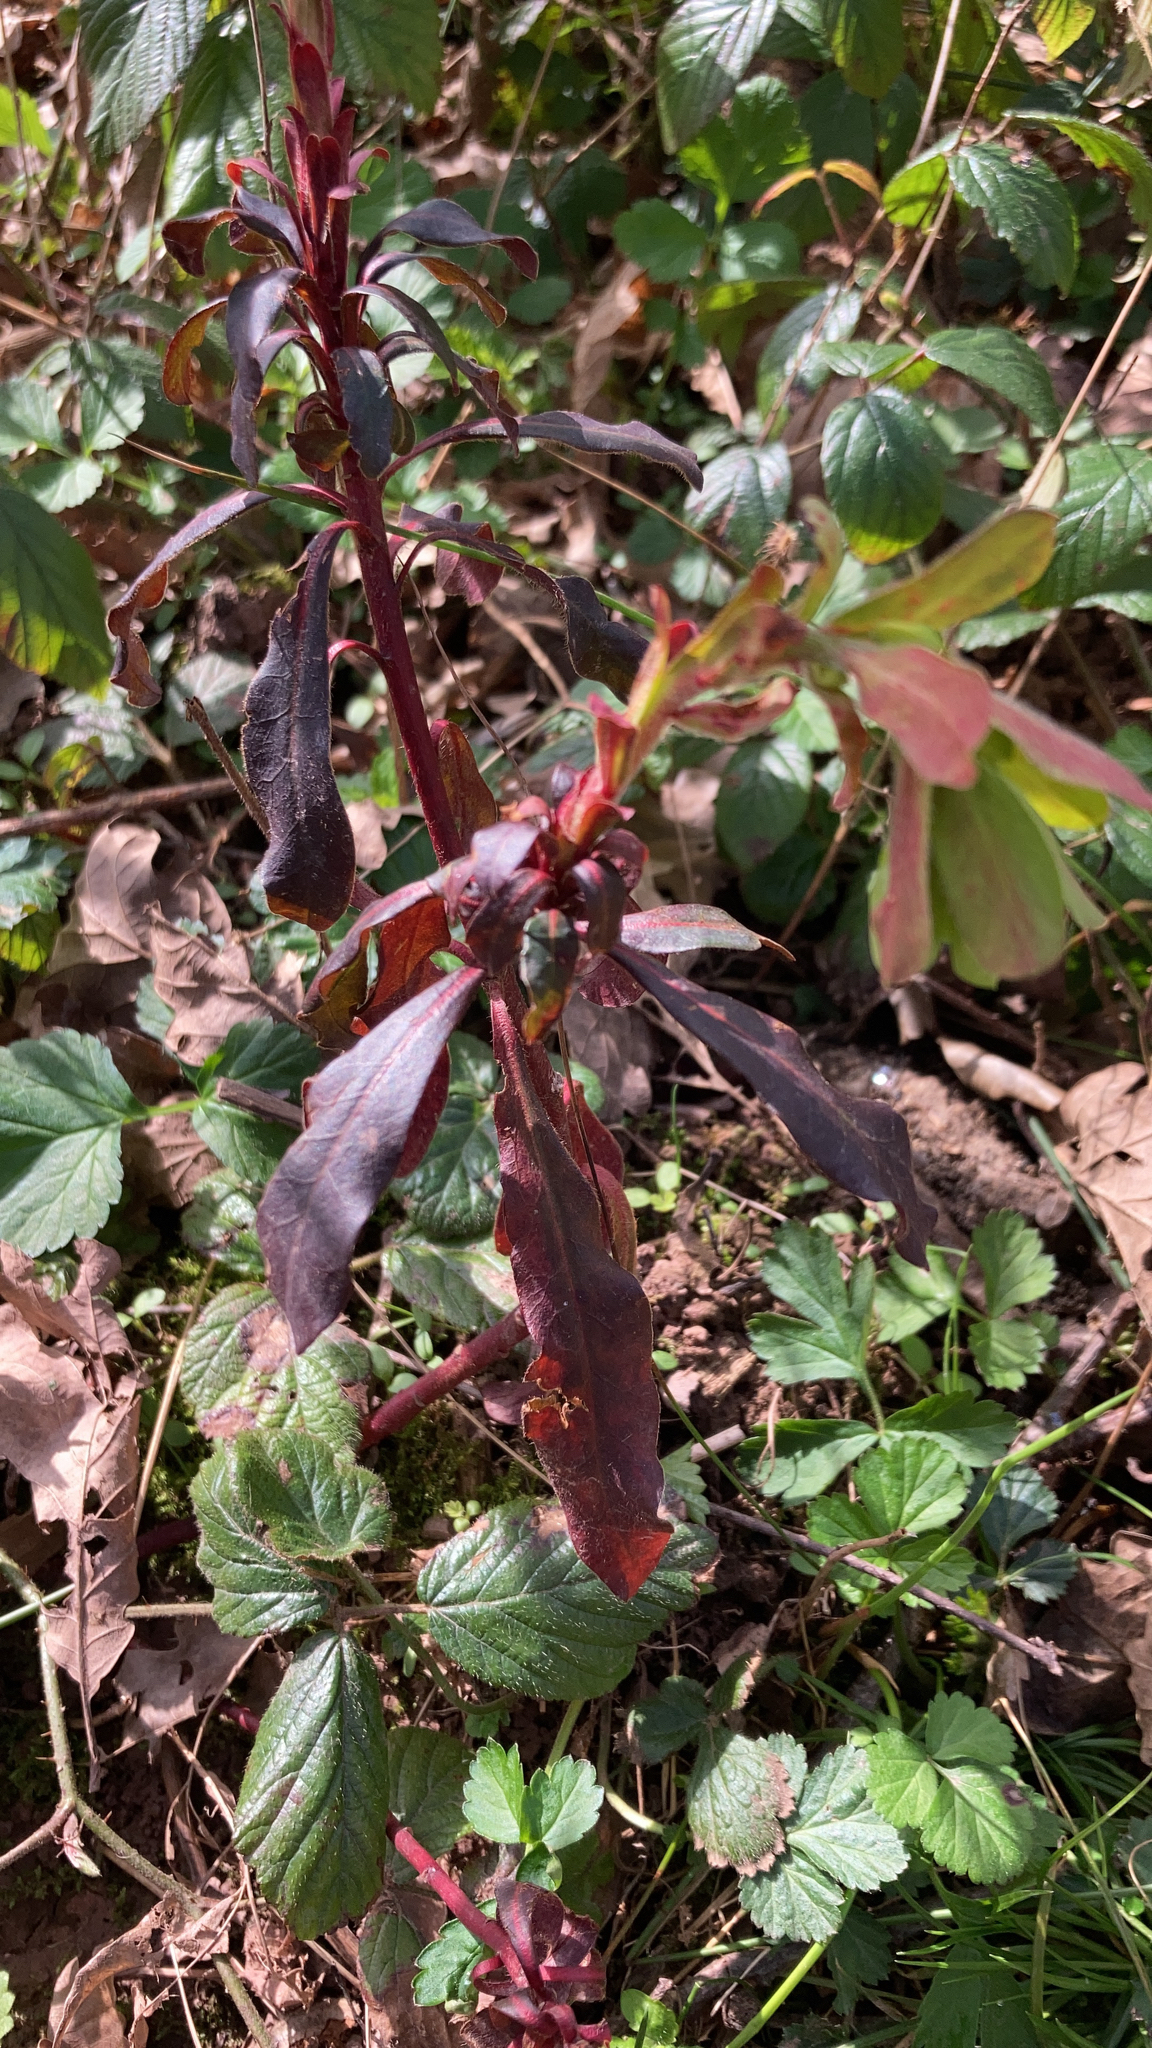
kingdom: Plantae
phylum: Tracheophyta
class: Magnoliopsida
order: Malpighiales
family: Euphorbiaceae
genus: Euphorbia
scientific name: Euphorbia amygdaloides
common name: Wood spurge
